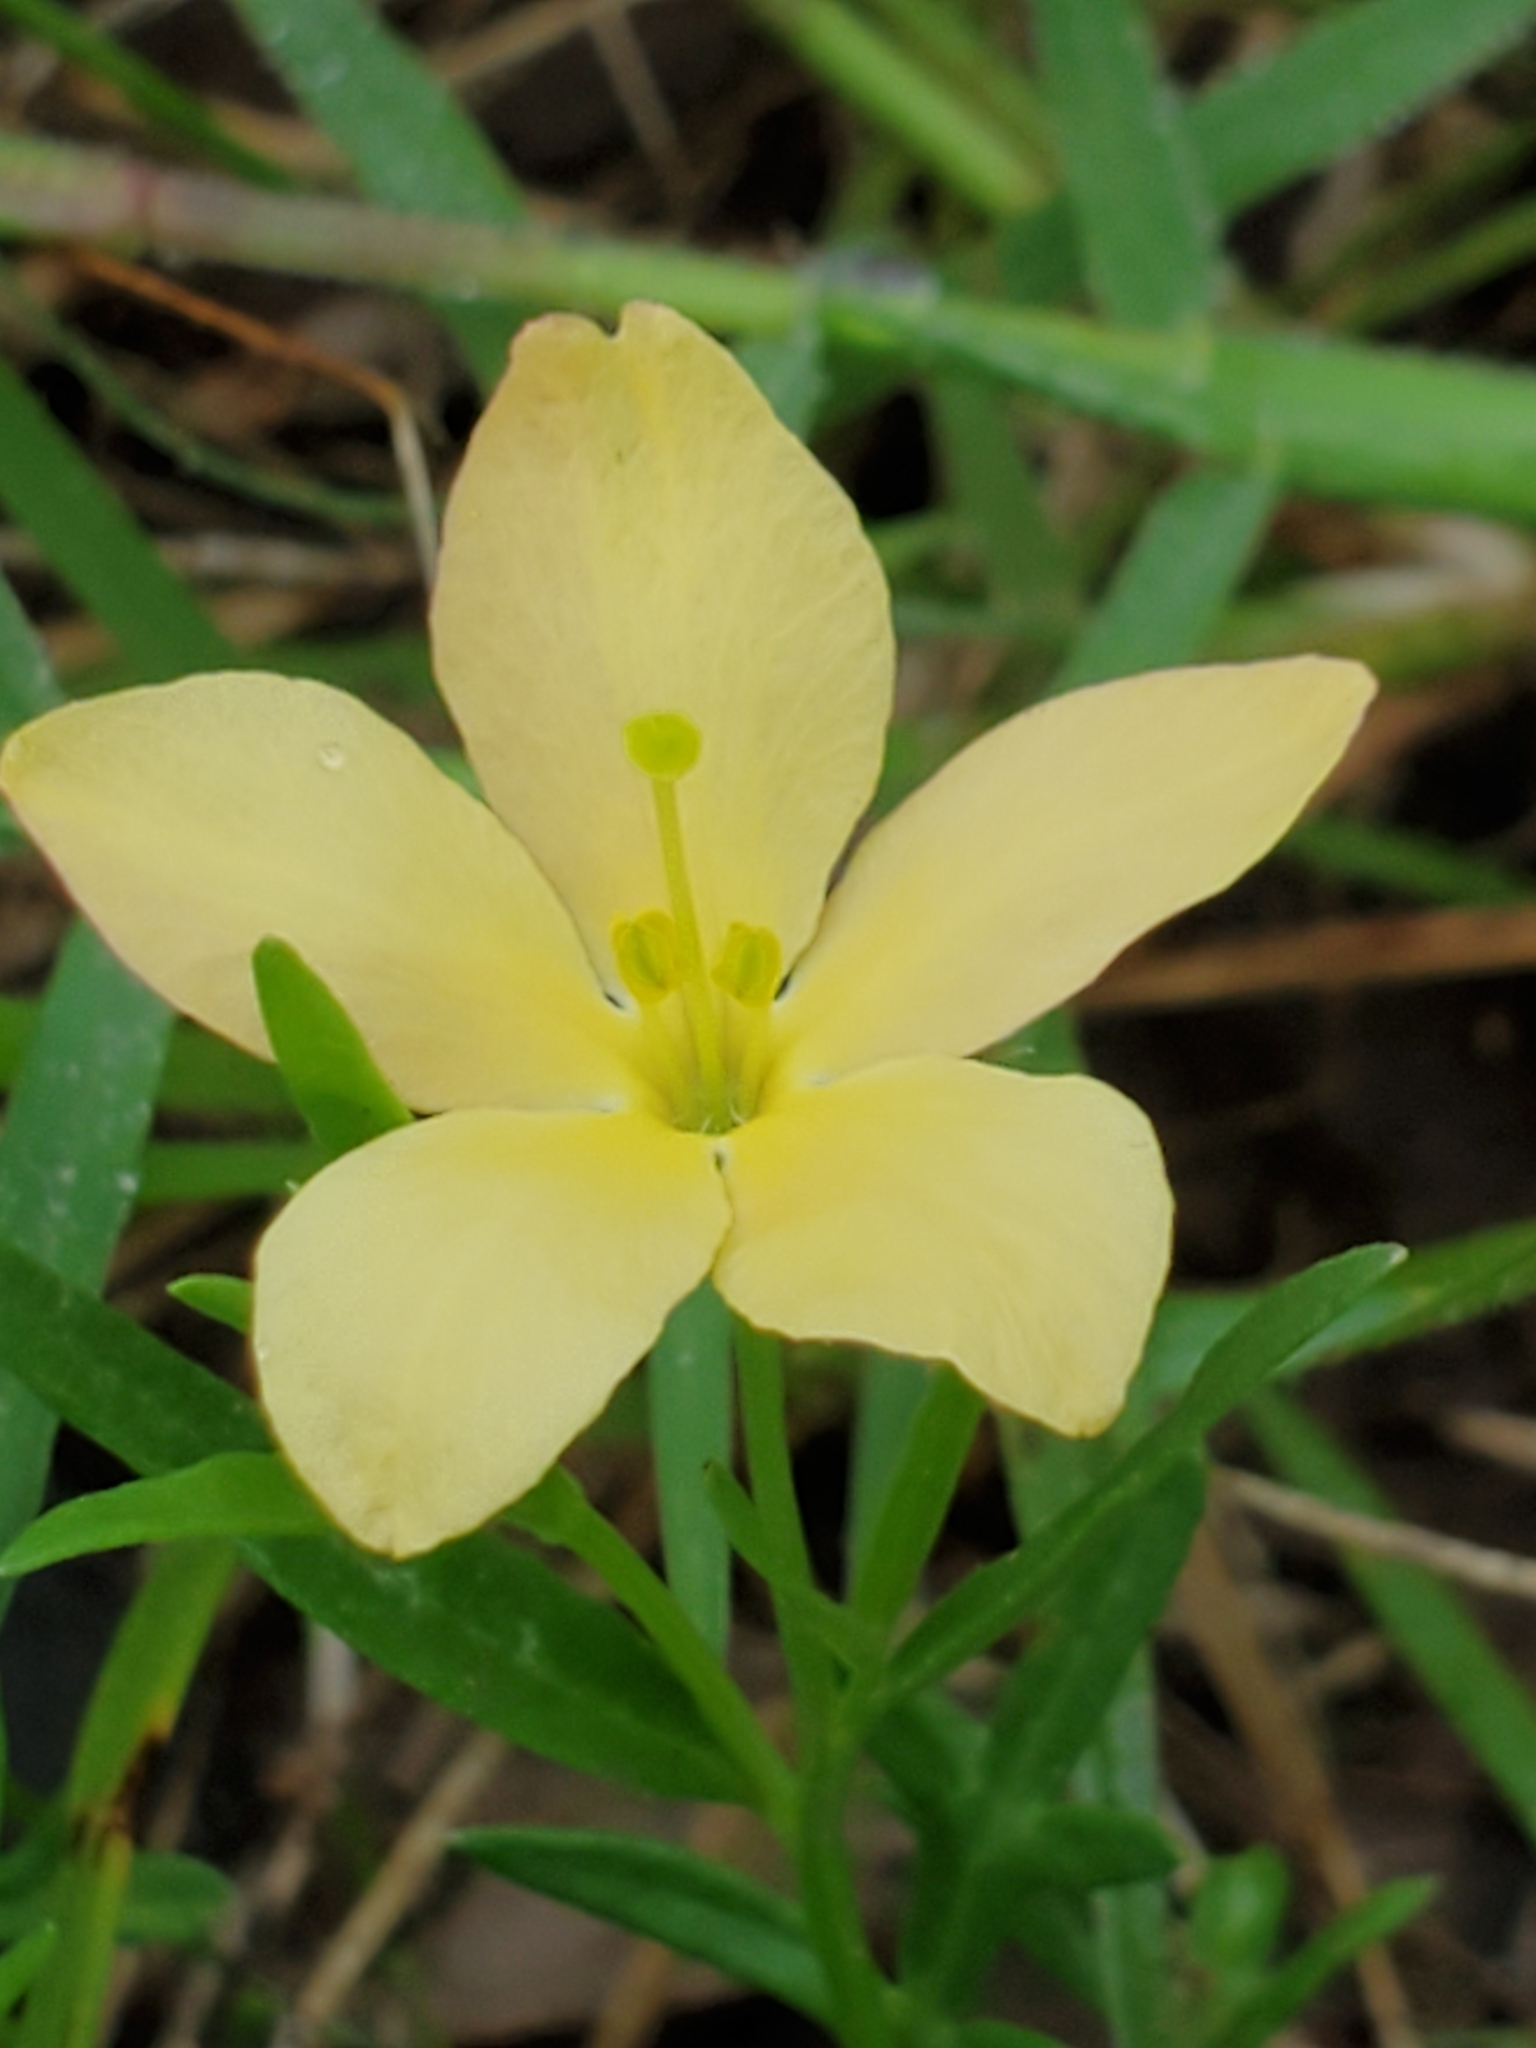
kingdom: Plantae
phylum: Tracheophyta
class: Magnoliopsida
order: Lamiales
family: Oleaceae
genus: Menodora
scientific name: Menodora heterophylla
